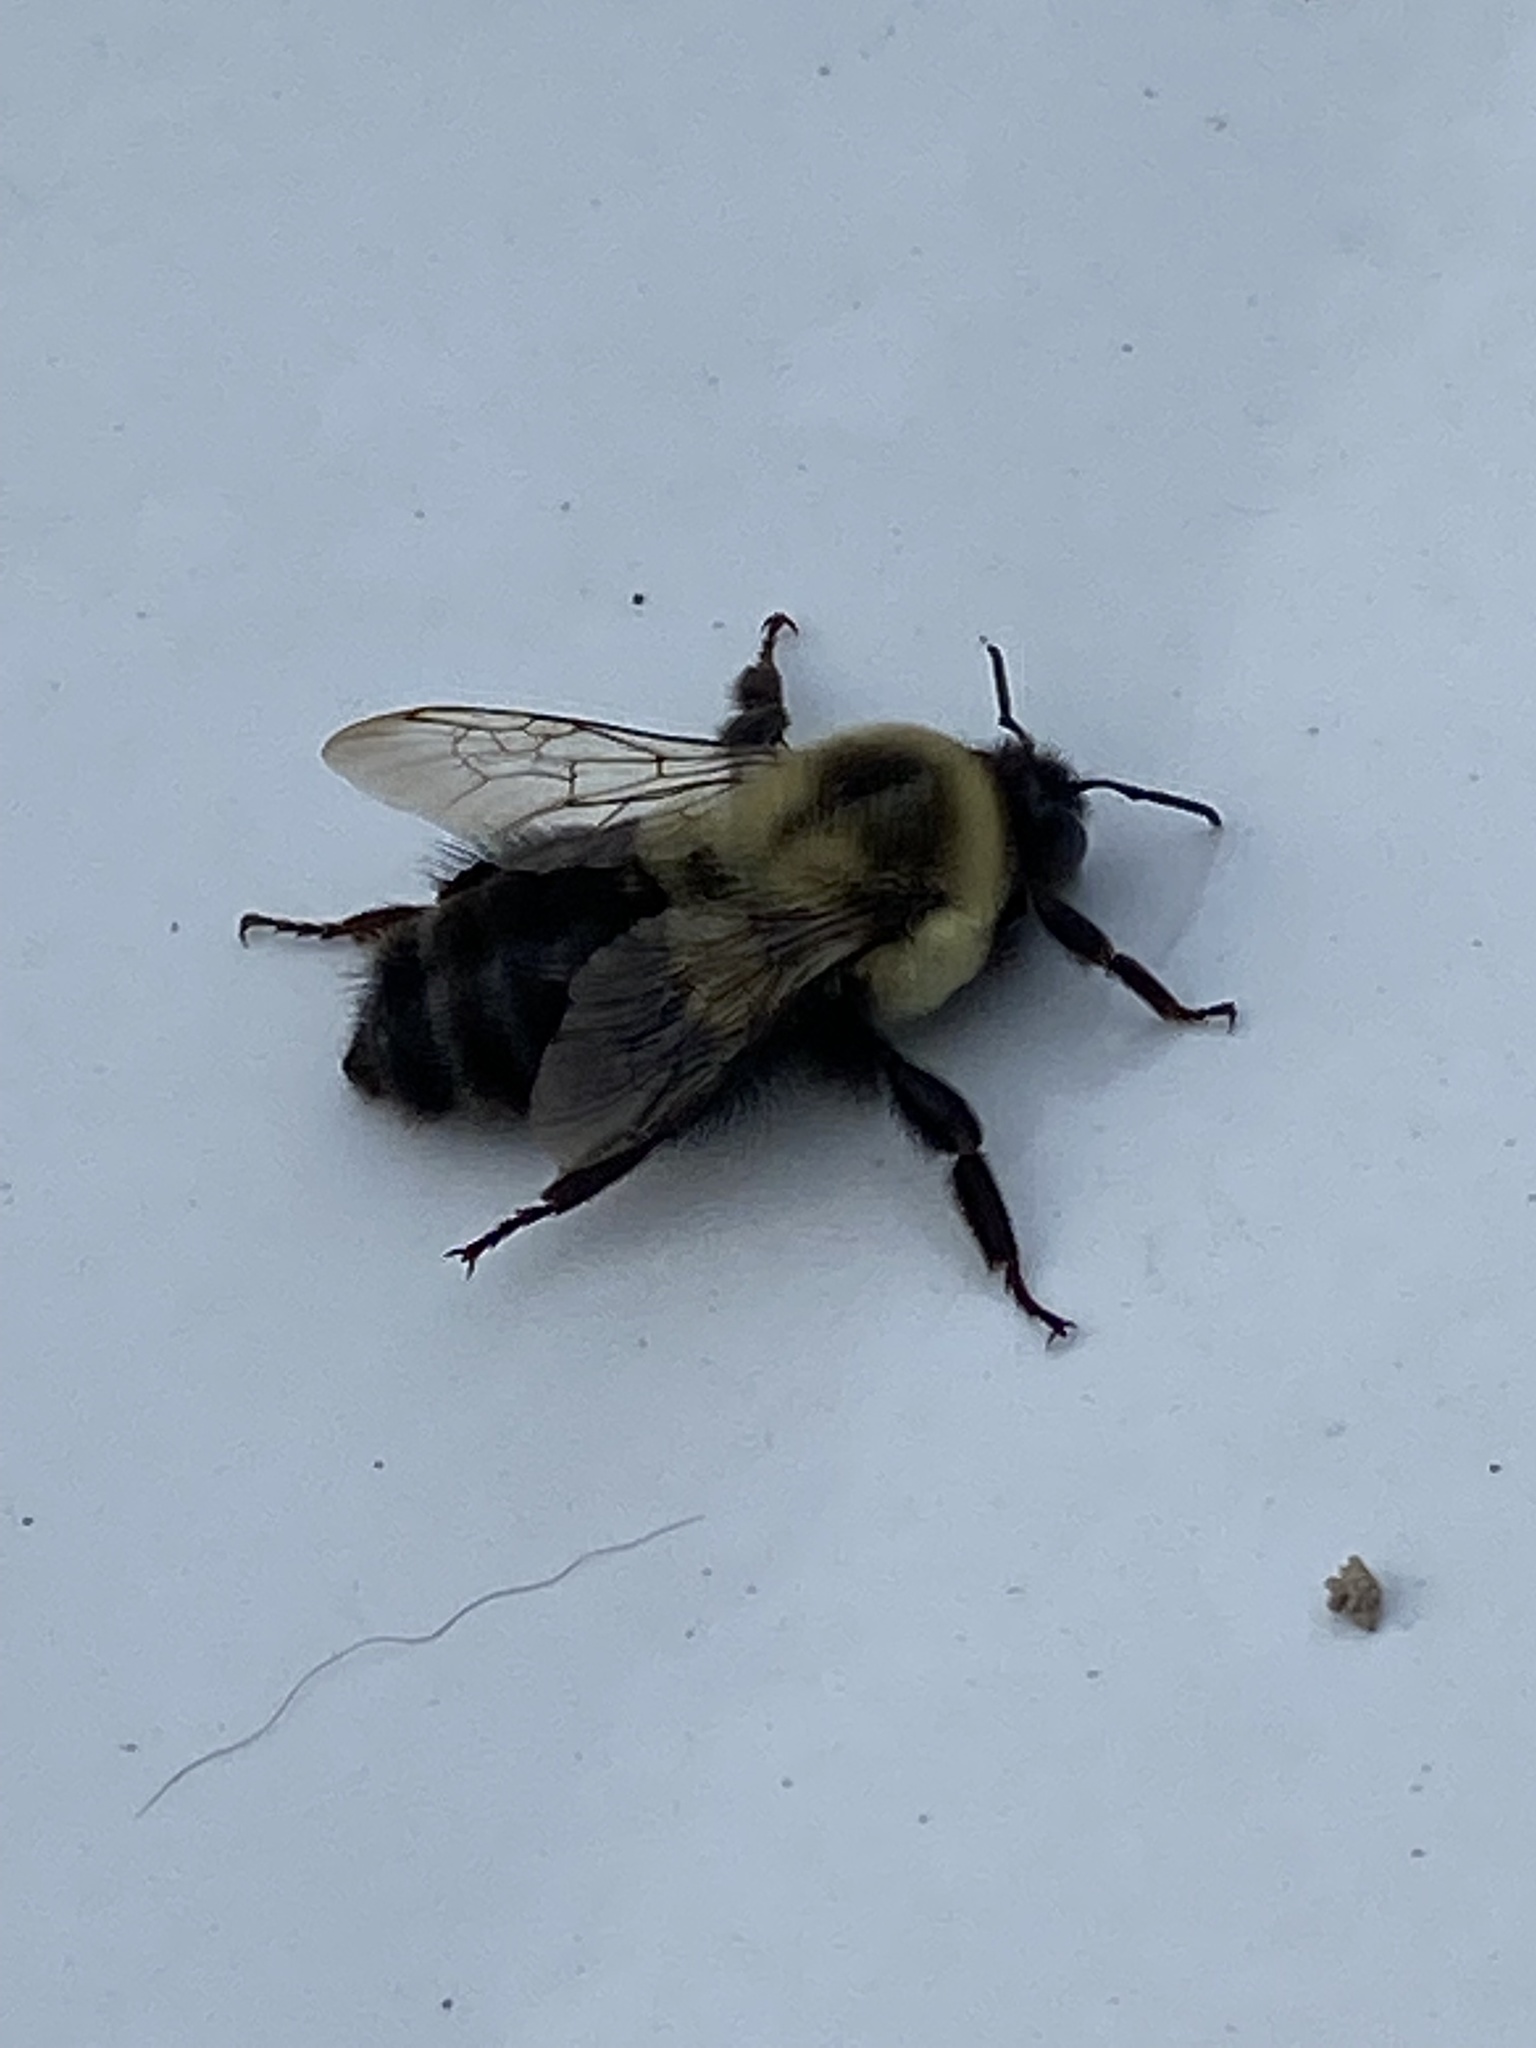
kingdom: Animalia
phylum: Arthropoda
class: Insecta
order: Hymenoptera
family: Apidae
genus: Bombus
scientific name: Bombus impatiens
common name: Common eastern bumble bee
